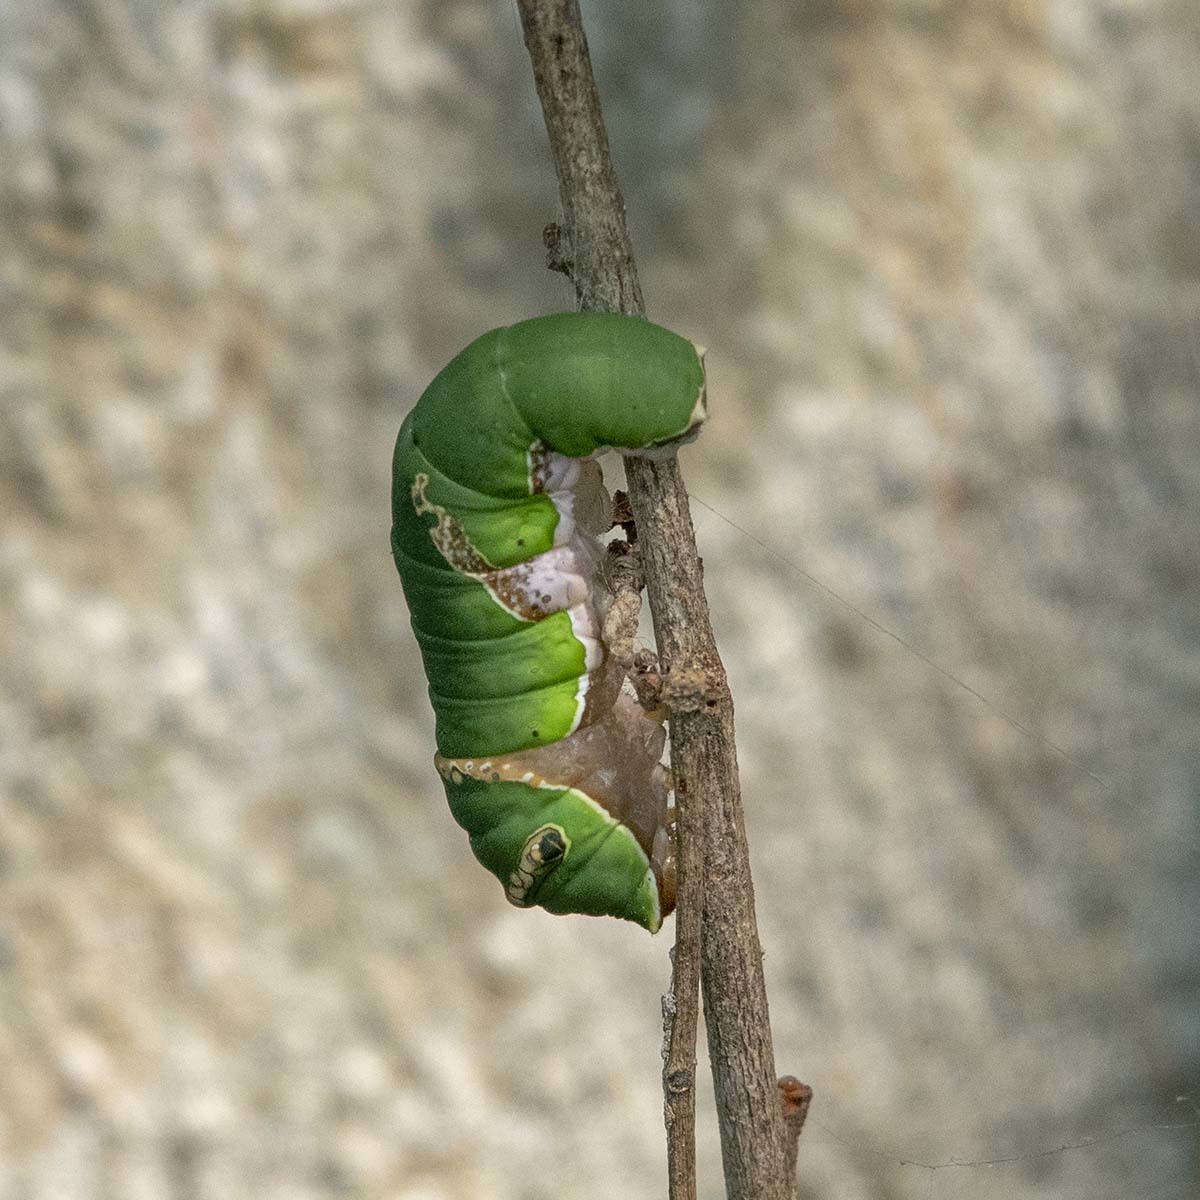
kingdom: Animalia
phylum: Arthropoda
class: Insecta
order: Lepidoptera
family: Papilionidae
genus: Papilio
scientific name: Papilio polytes
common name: Common mormon
